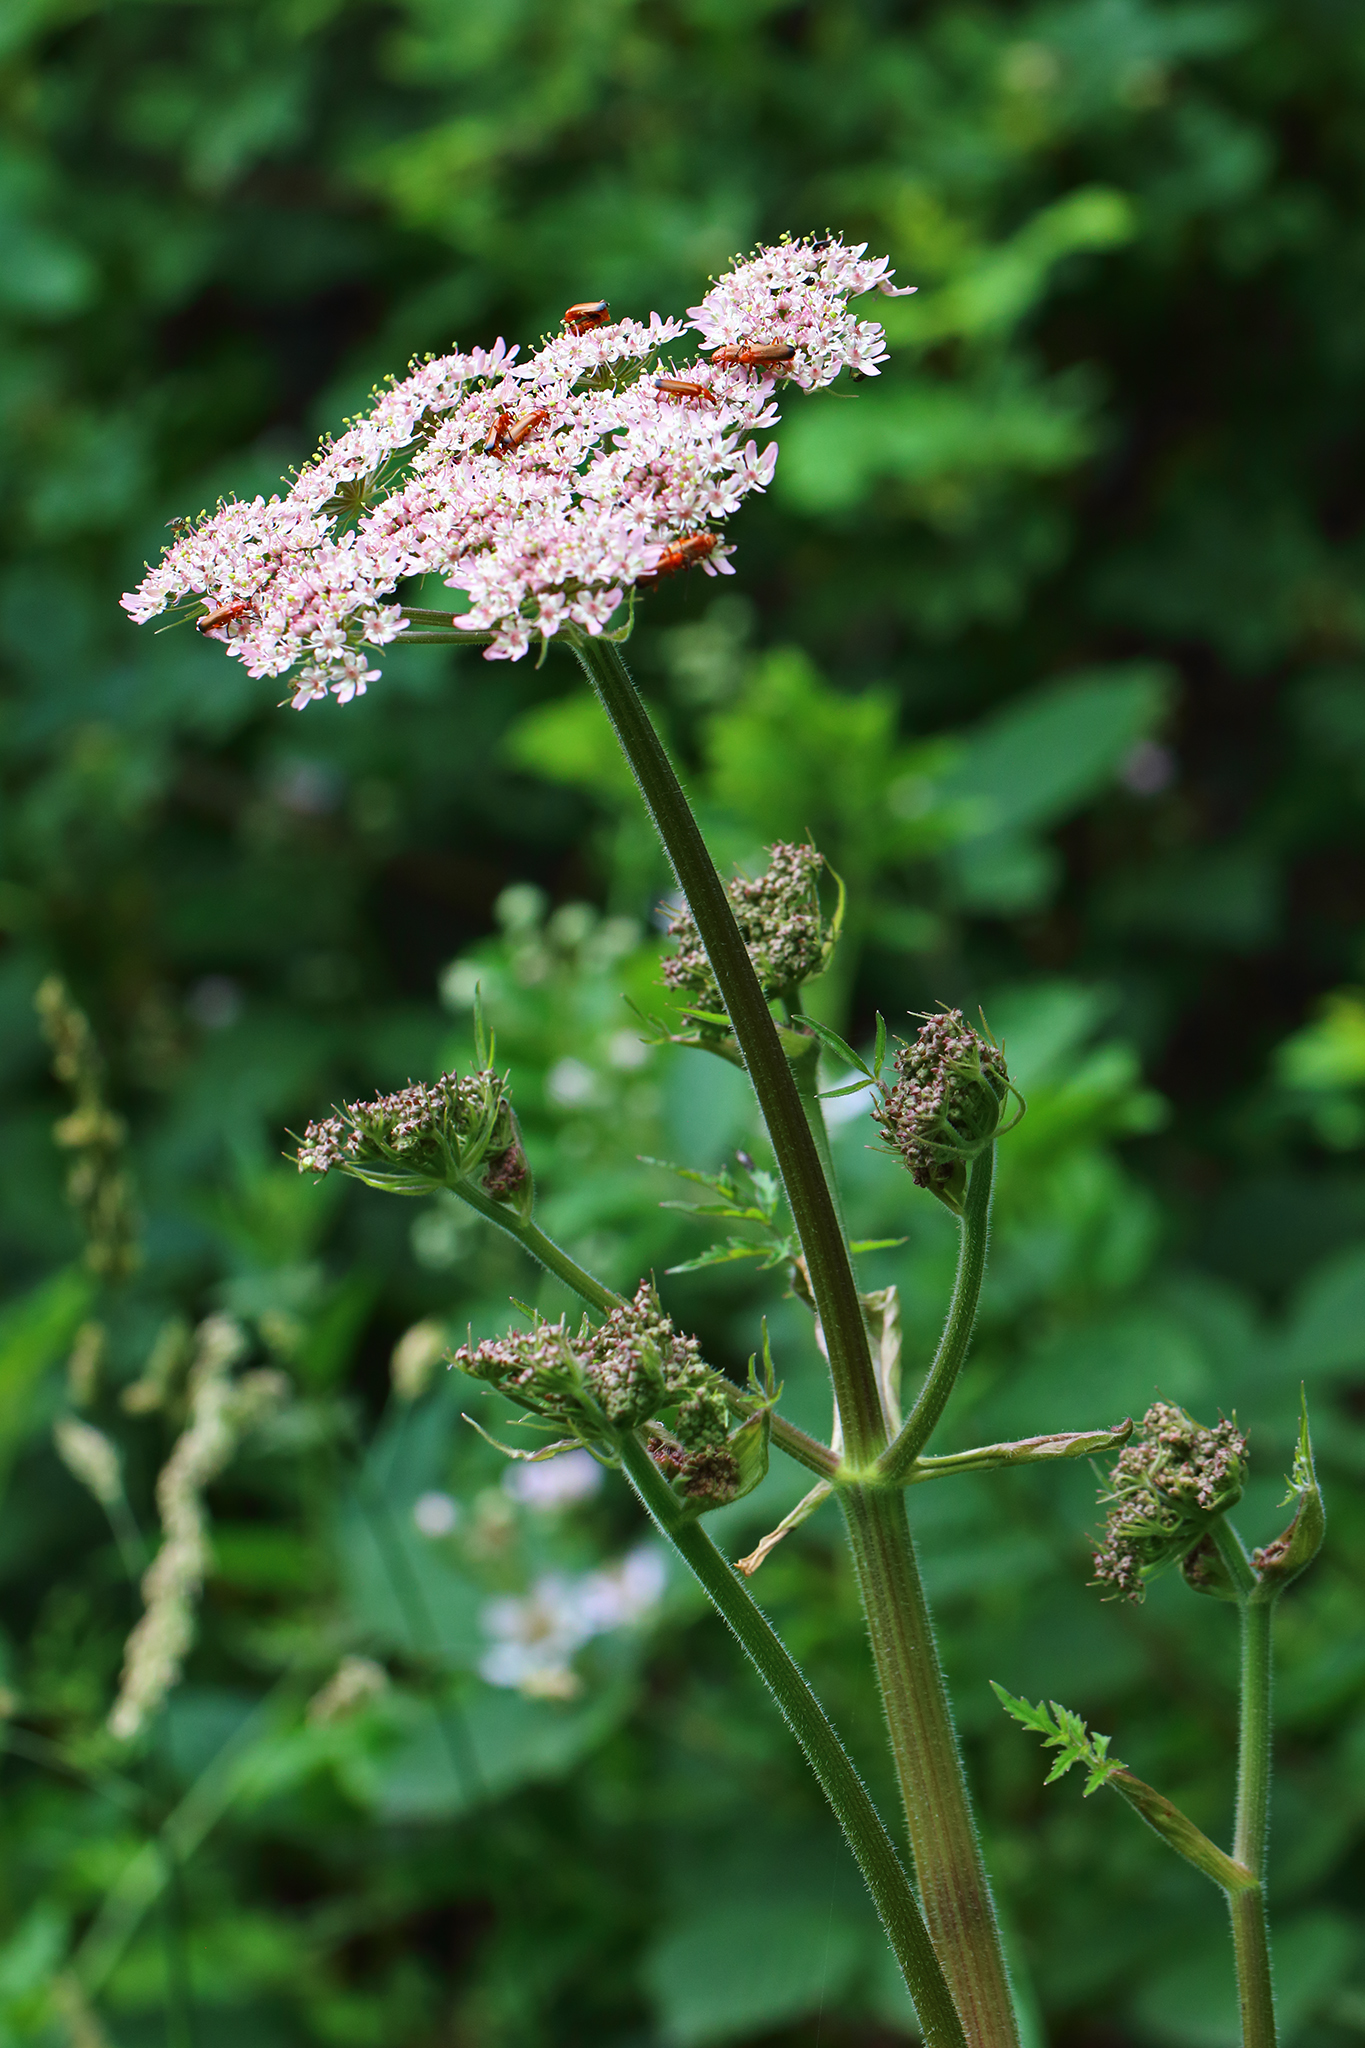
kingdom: Plantae
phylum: Tracheophyta
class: Magnoliopsida
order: Apiales
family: Apiaceae
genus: Heracleum
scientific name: Heracleum sphondylium
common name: Hogweed
